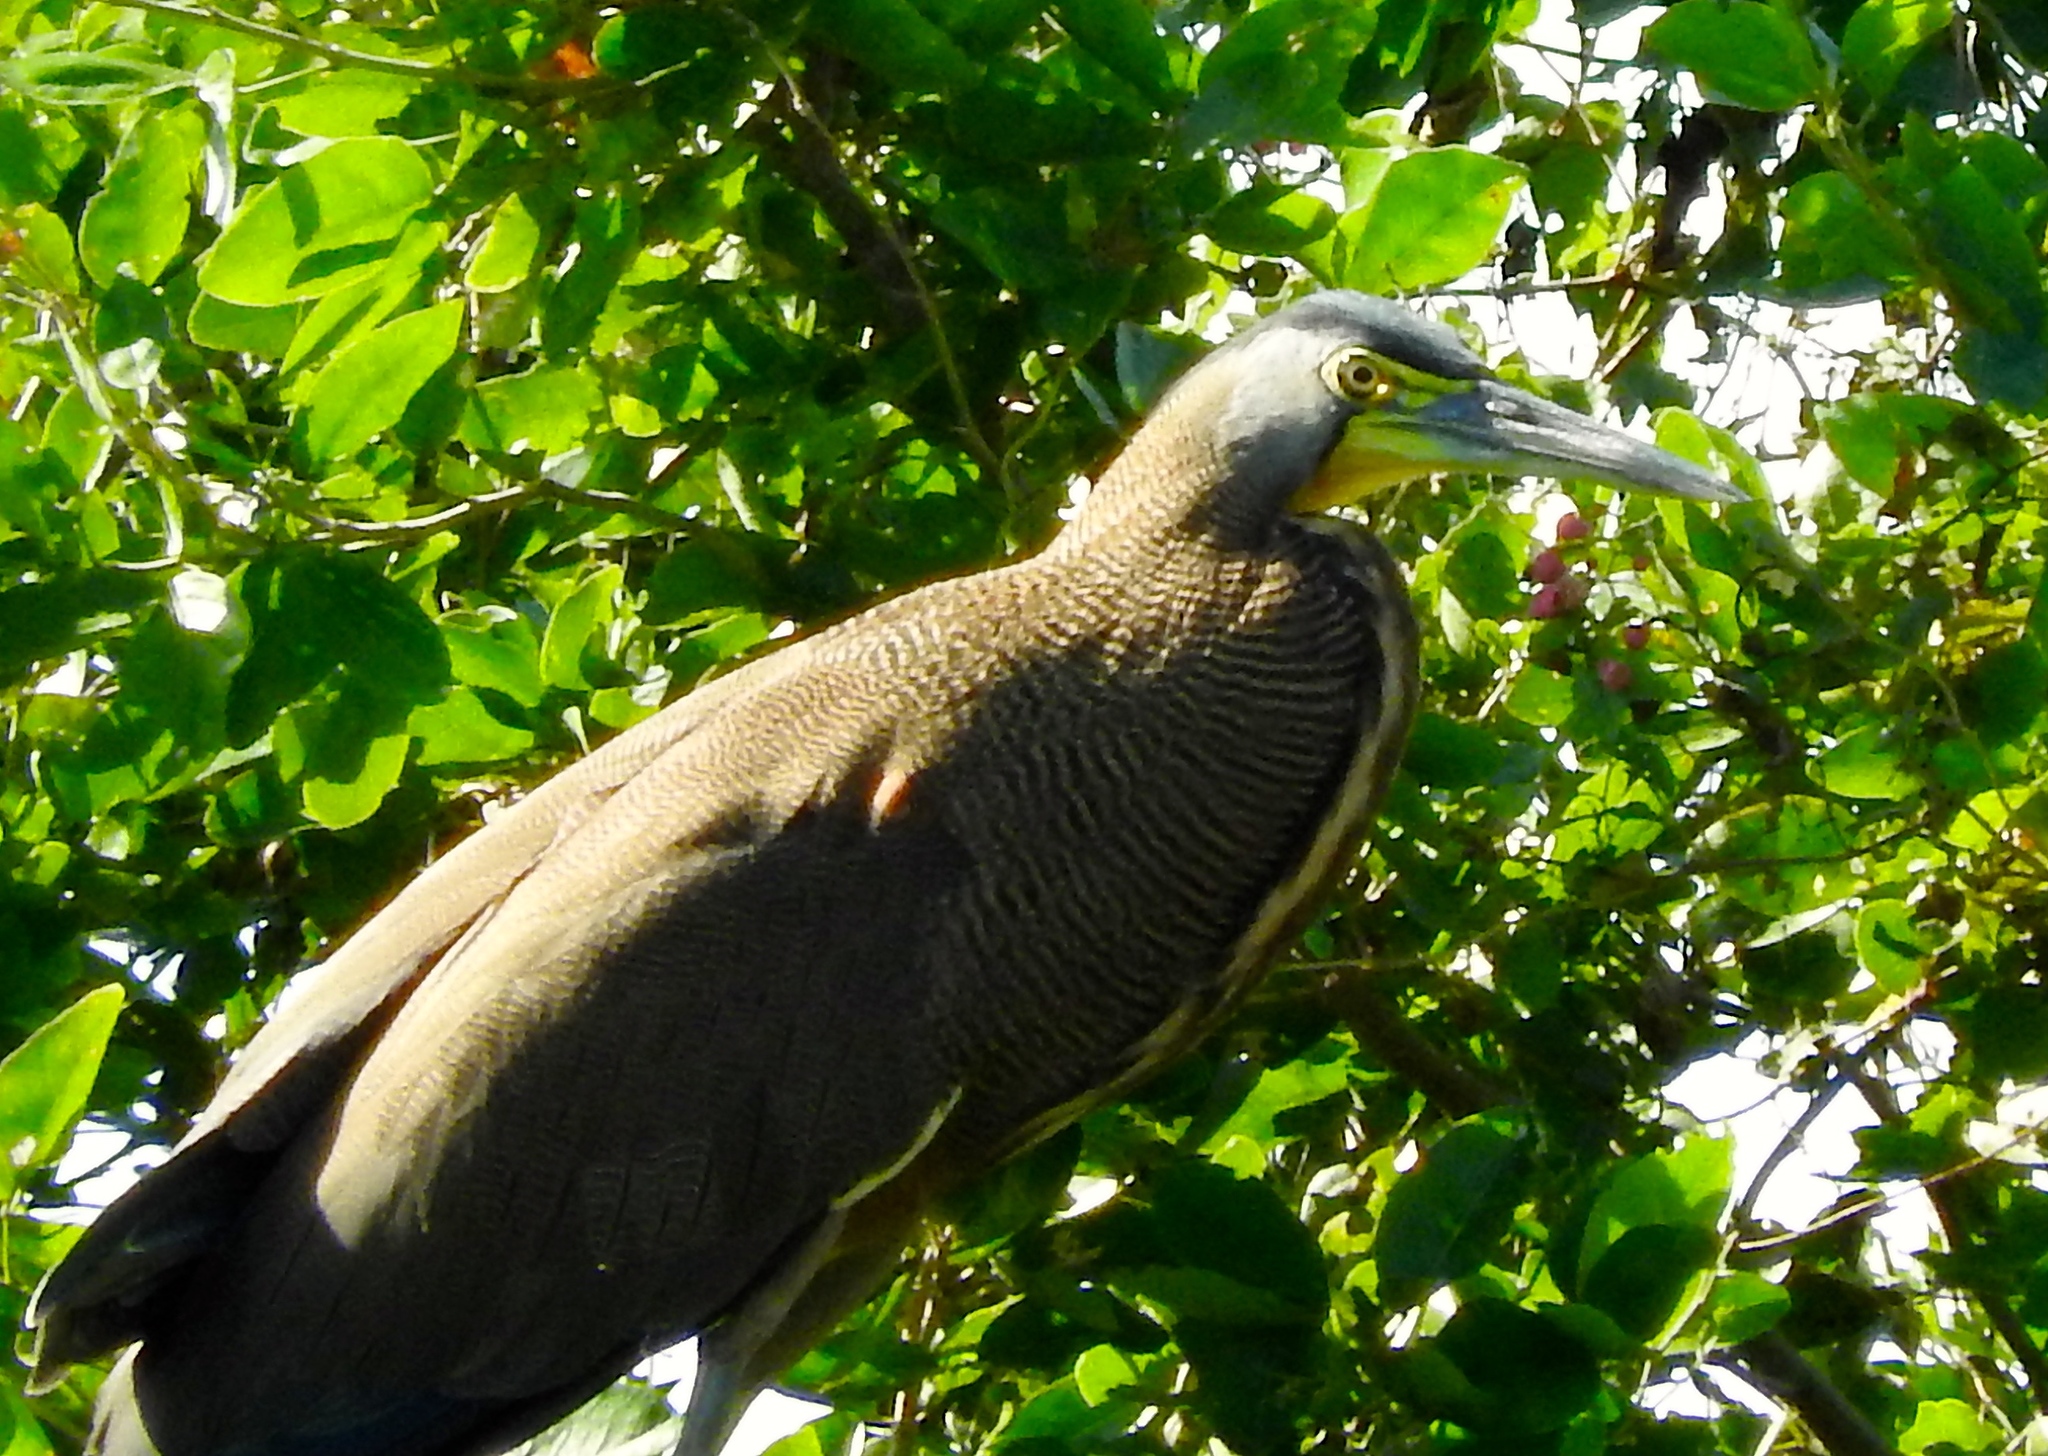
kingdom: Animalia
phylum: Chordata
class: Aves
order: Pelecaniformes
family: Ardeidae
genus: Tigrisoma
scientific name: Tigrisoma mexicanum
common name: Bare-throated tiger-heron
